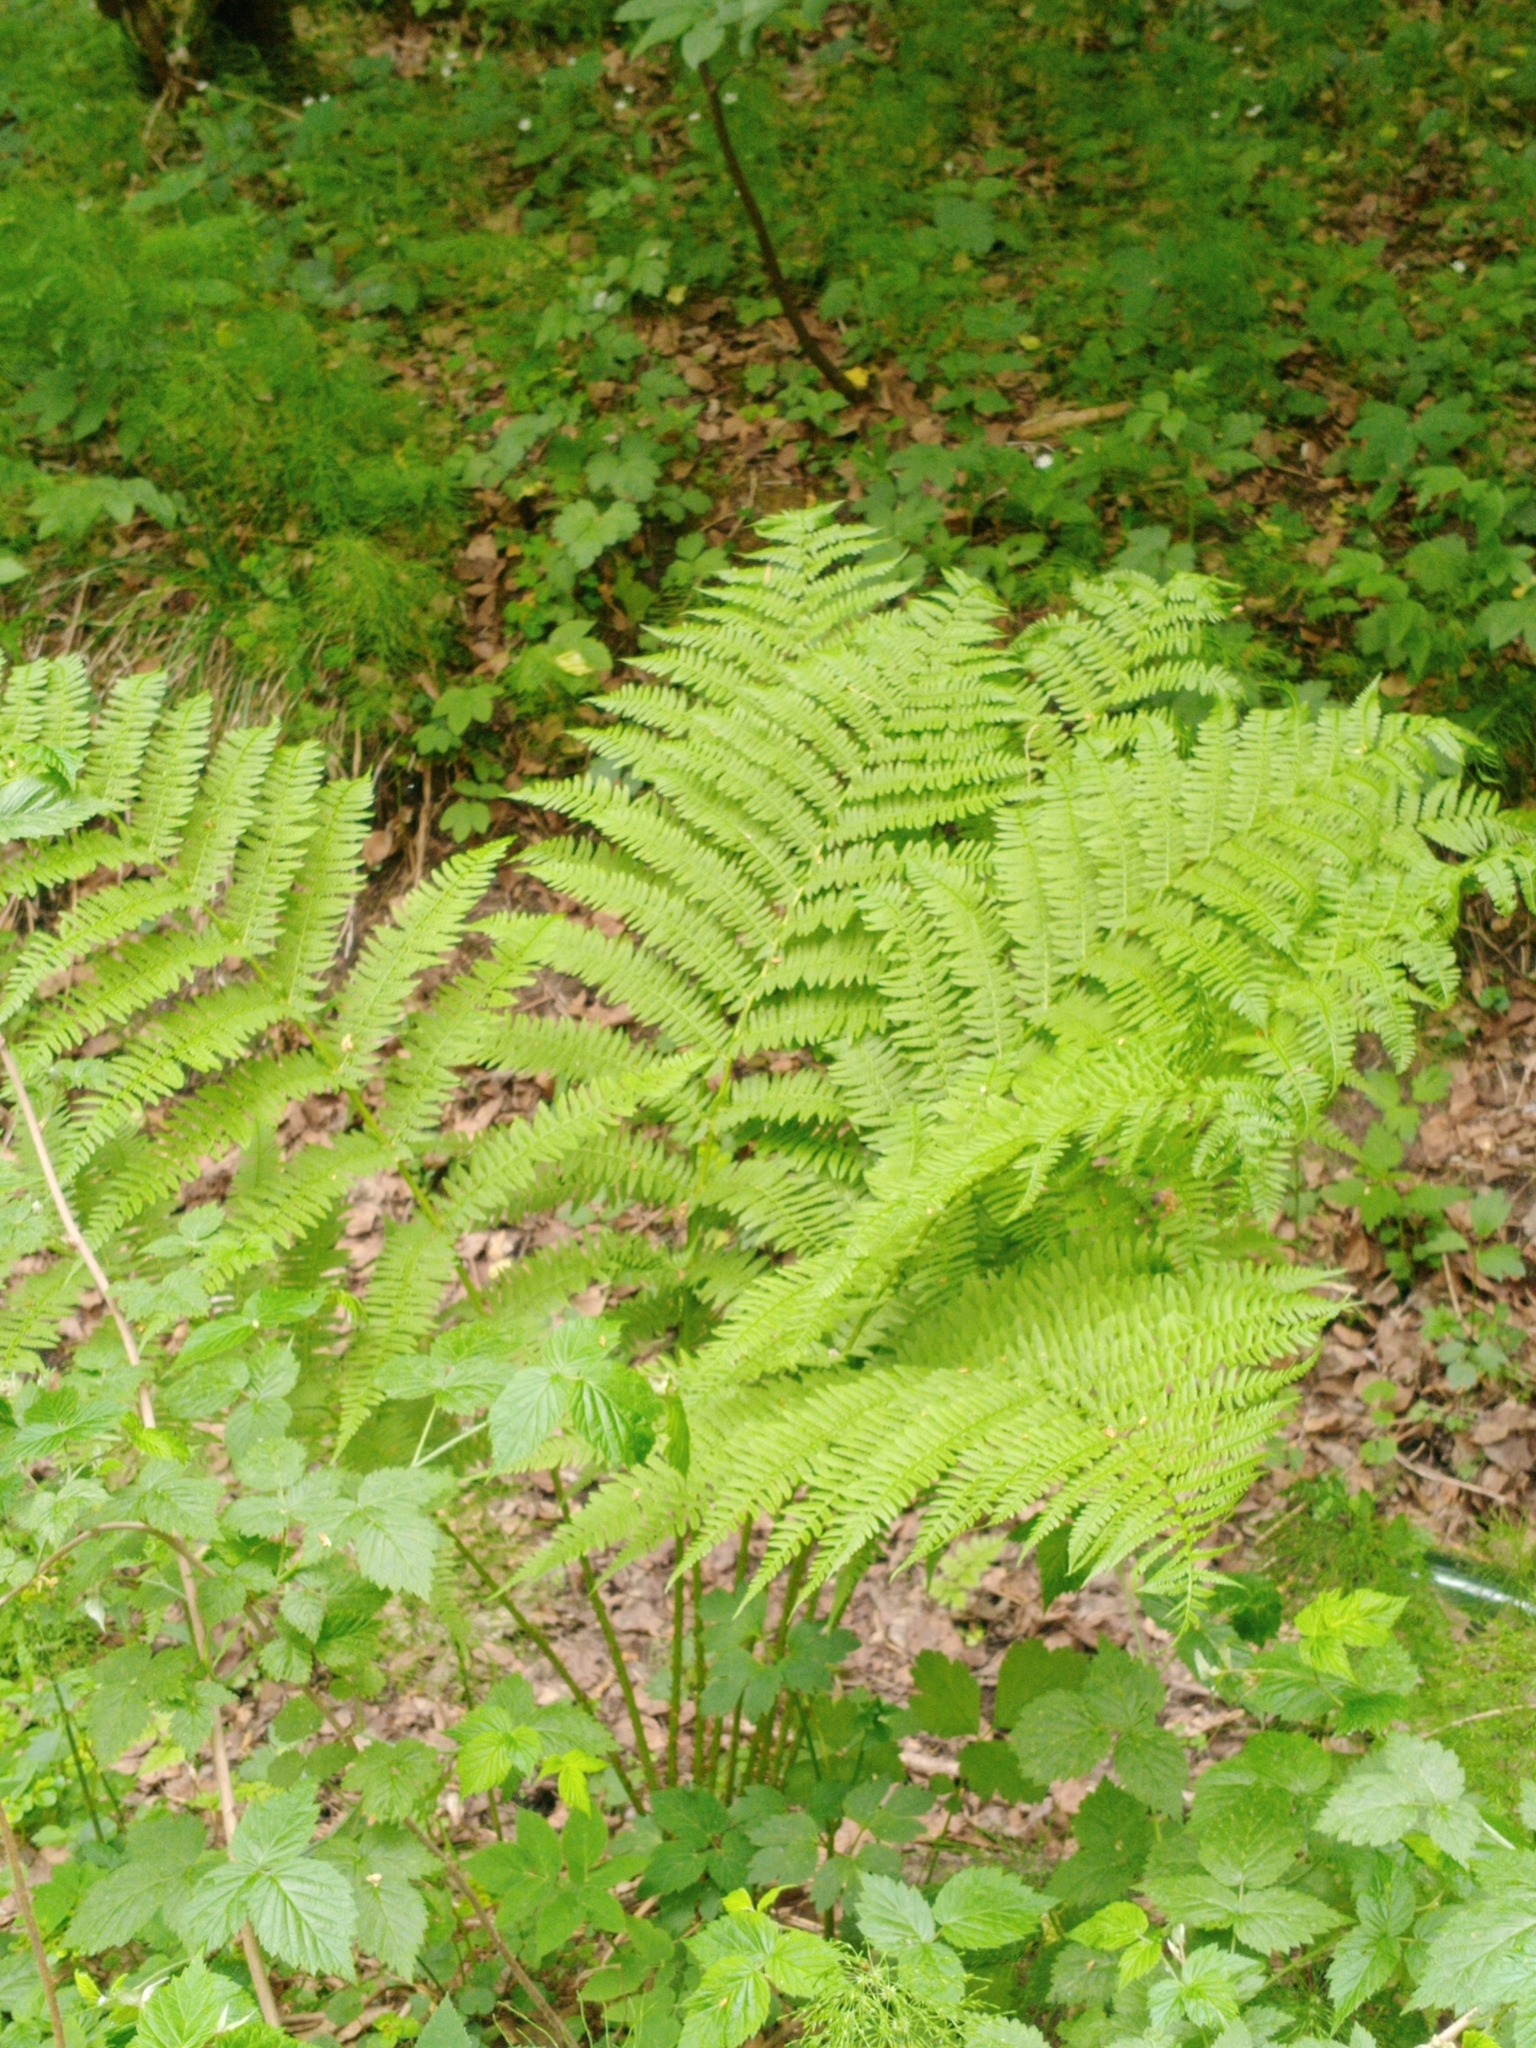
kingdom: Plantae
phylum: Tracheophyta
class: Polypodiopsida
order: Polypodiales
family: Athyriaceae
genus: Athyrium
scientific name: Athyrium filix-femina
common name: Lady fern
